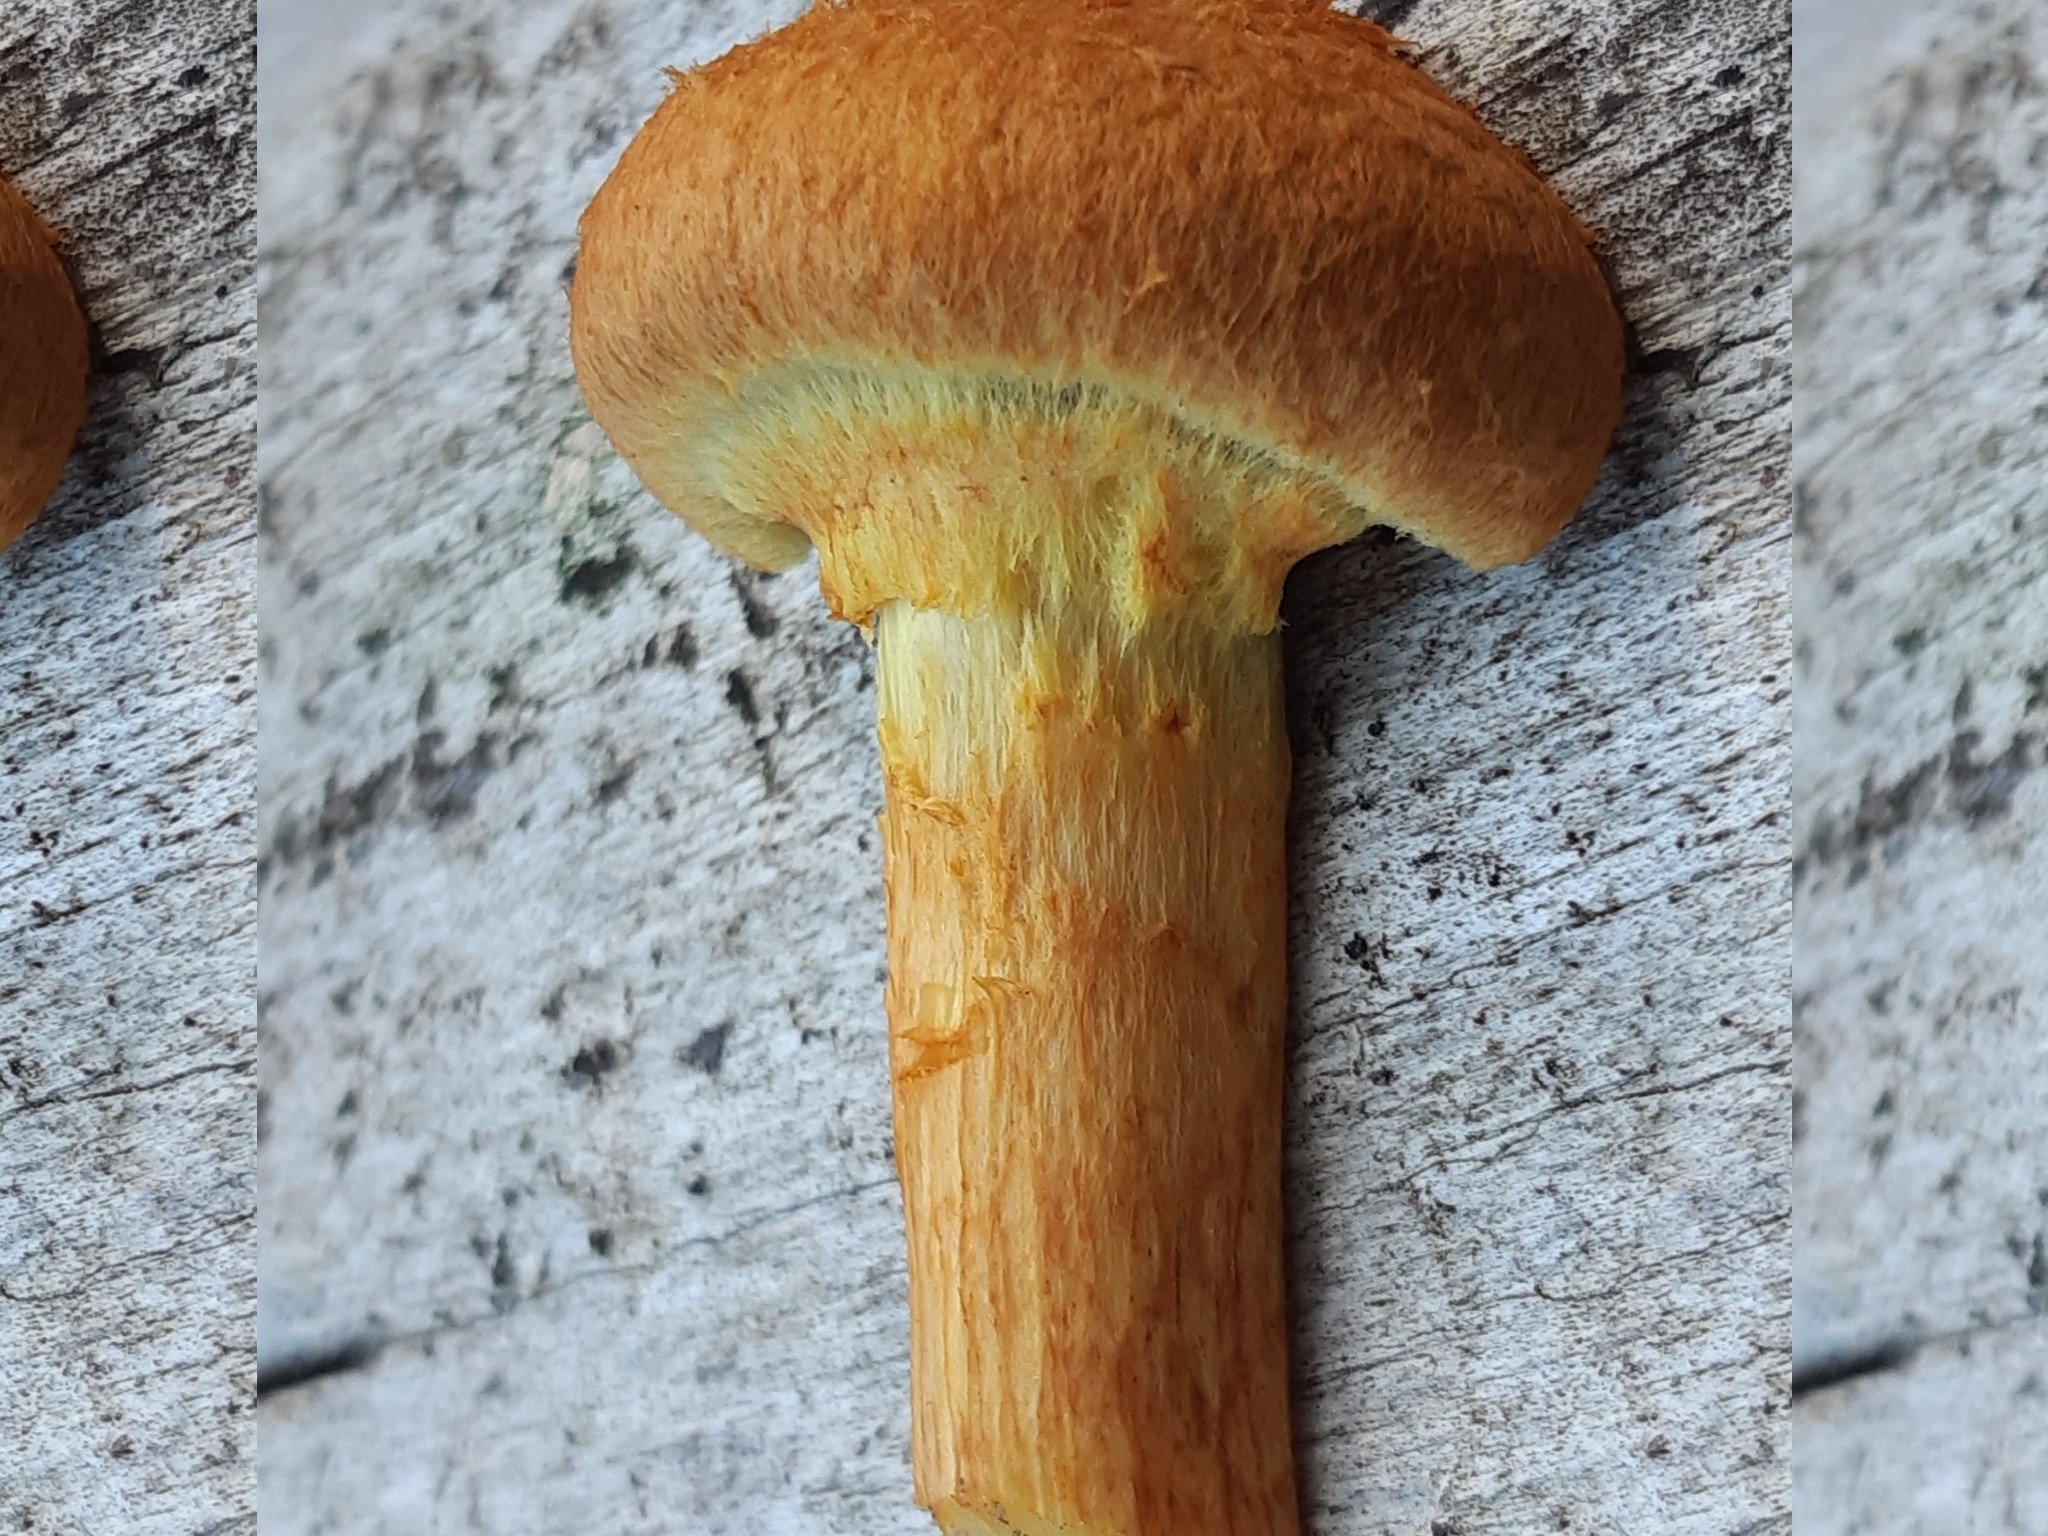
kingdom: Fungi
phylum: Basidiomycota
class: Agaricomycetes
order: Agaricales
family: Hymenogastraceae
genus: Gymnopilus
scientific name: Gymnopilus junonius
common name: Spectacular rustgill
